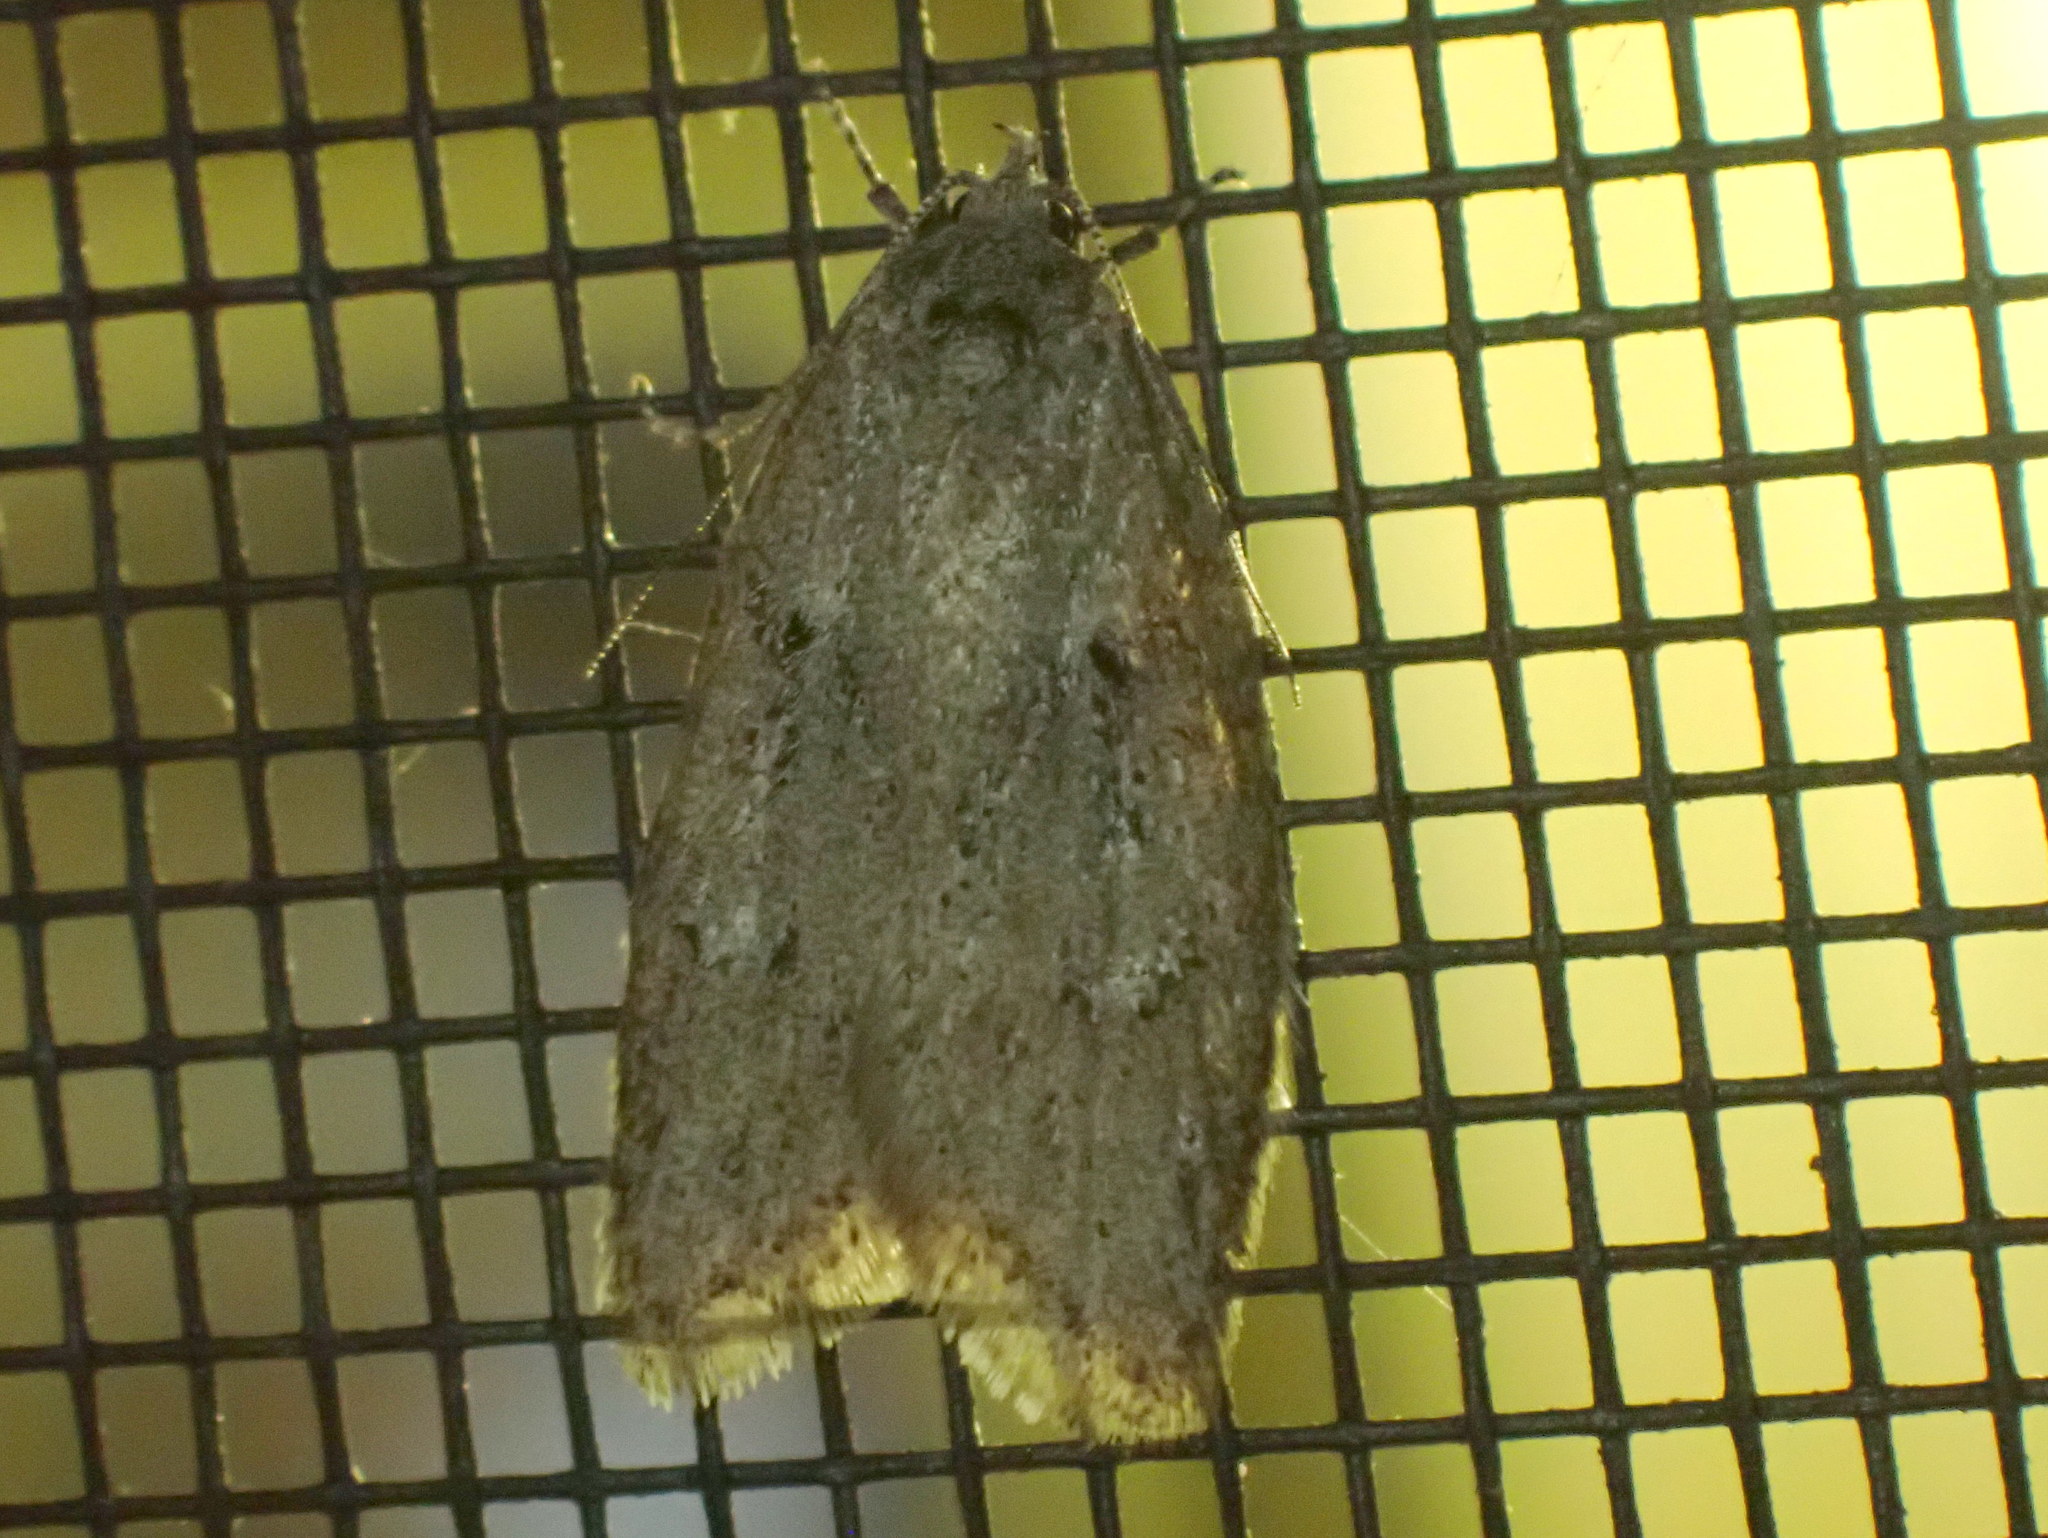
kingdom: Animalia
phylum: Arthropoda
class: Insecta
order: Lepidoptera
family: Depressariidae
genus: Semioscopis
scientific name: Semioscopis inornata
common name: Poplar micromoth
